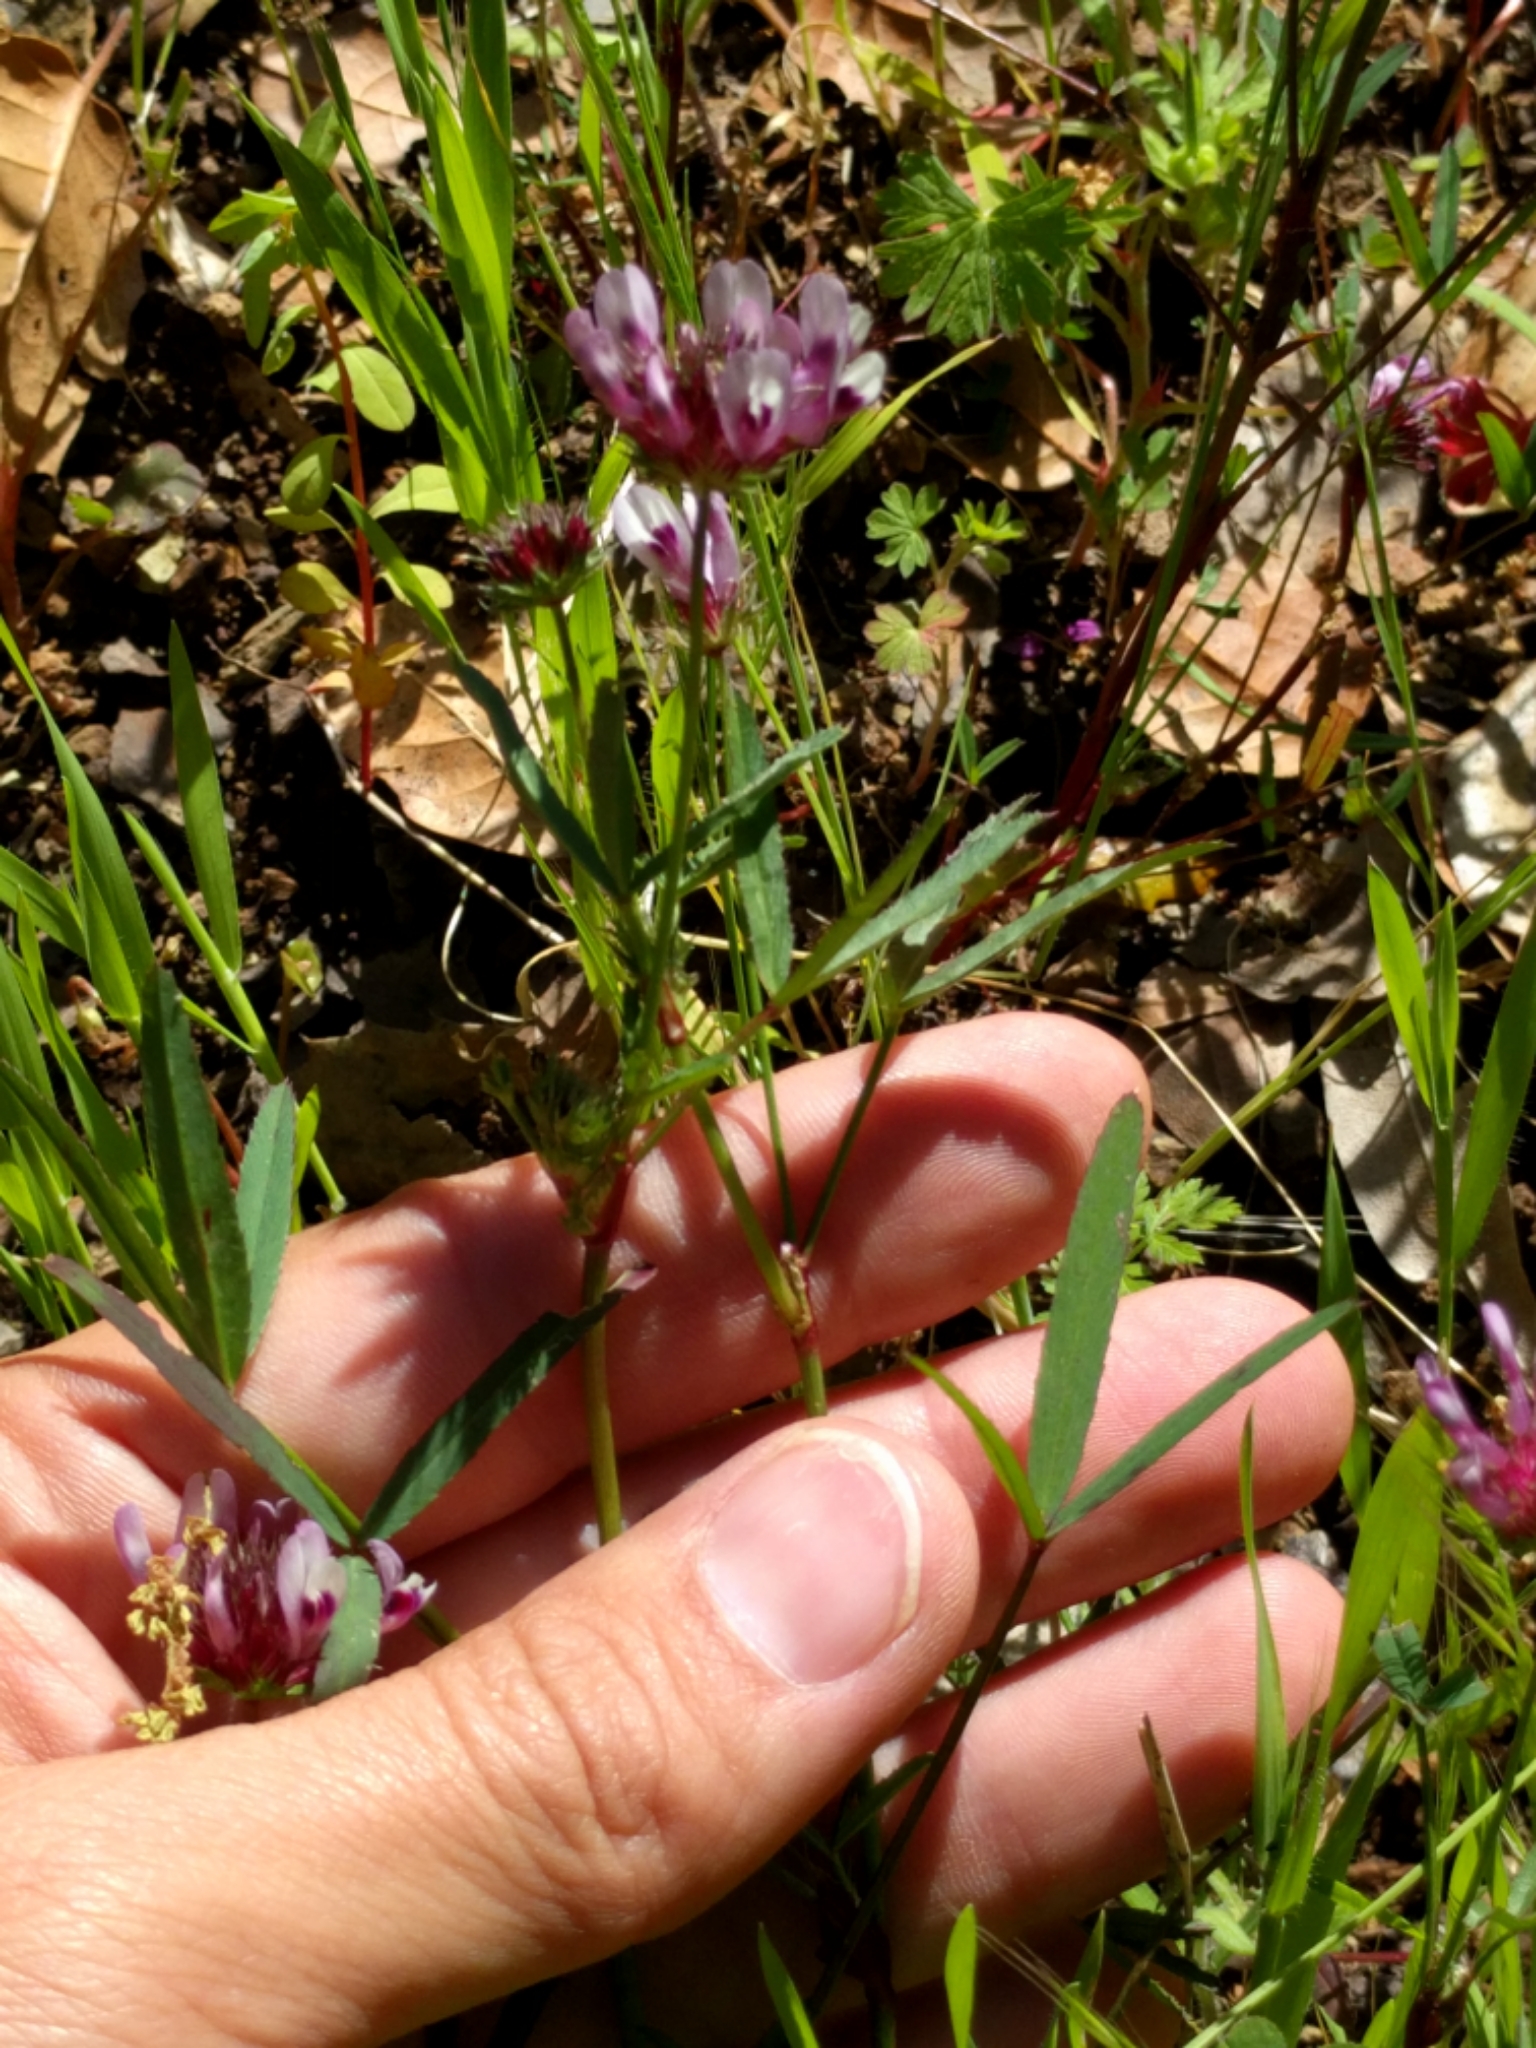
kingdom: Plantae
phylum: Tracheophyta
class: Magnoliopsida
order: Fabales
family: Fabaceae
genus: Trifolium
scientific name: Trifolium willdenovii
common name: Tomcat clover
